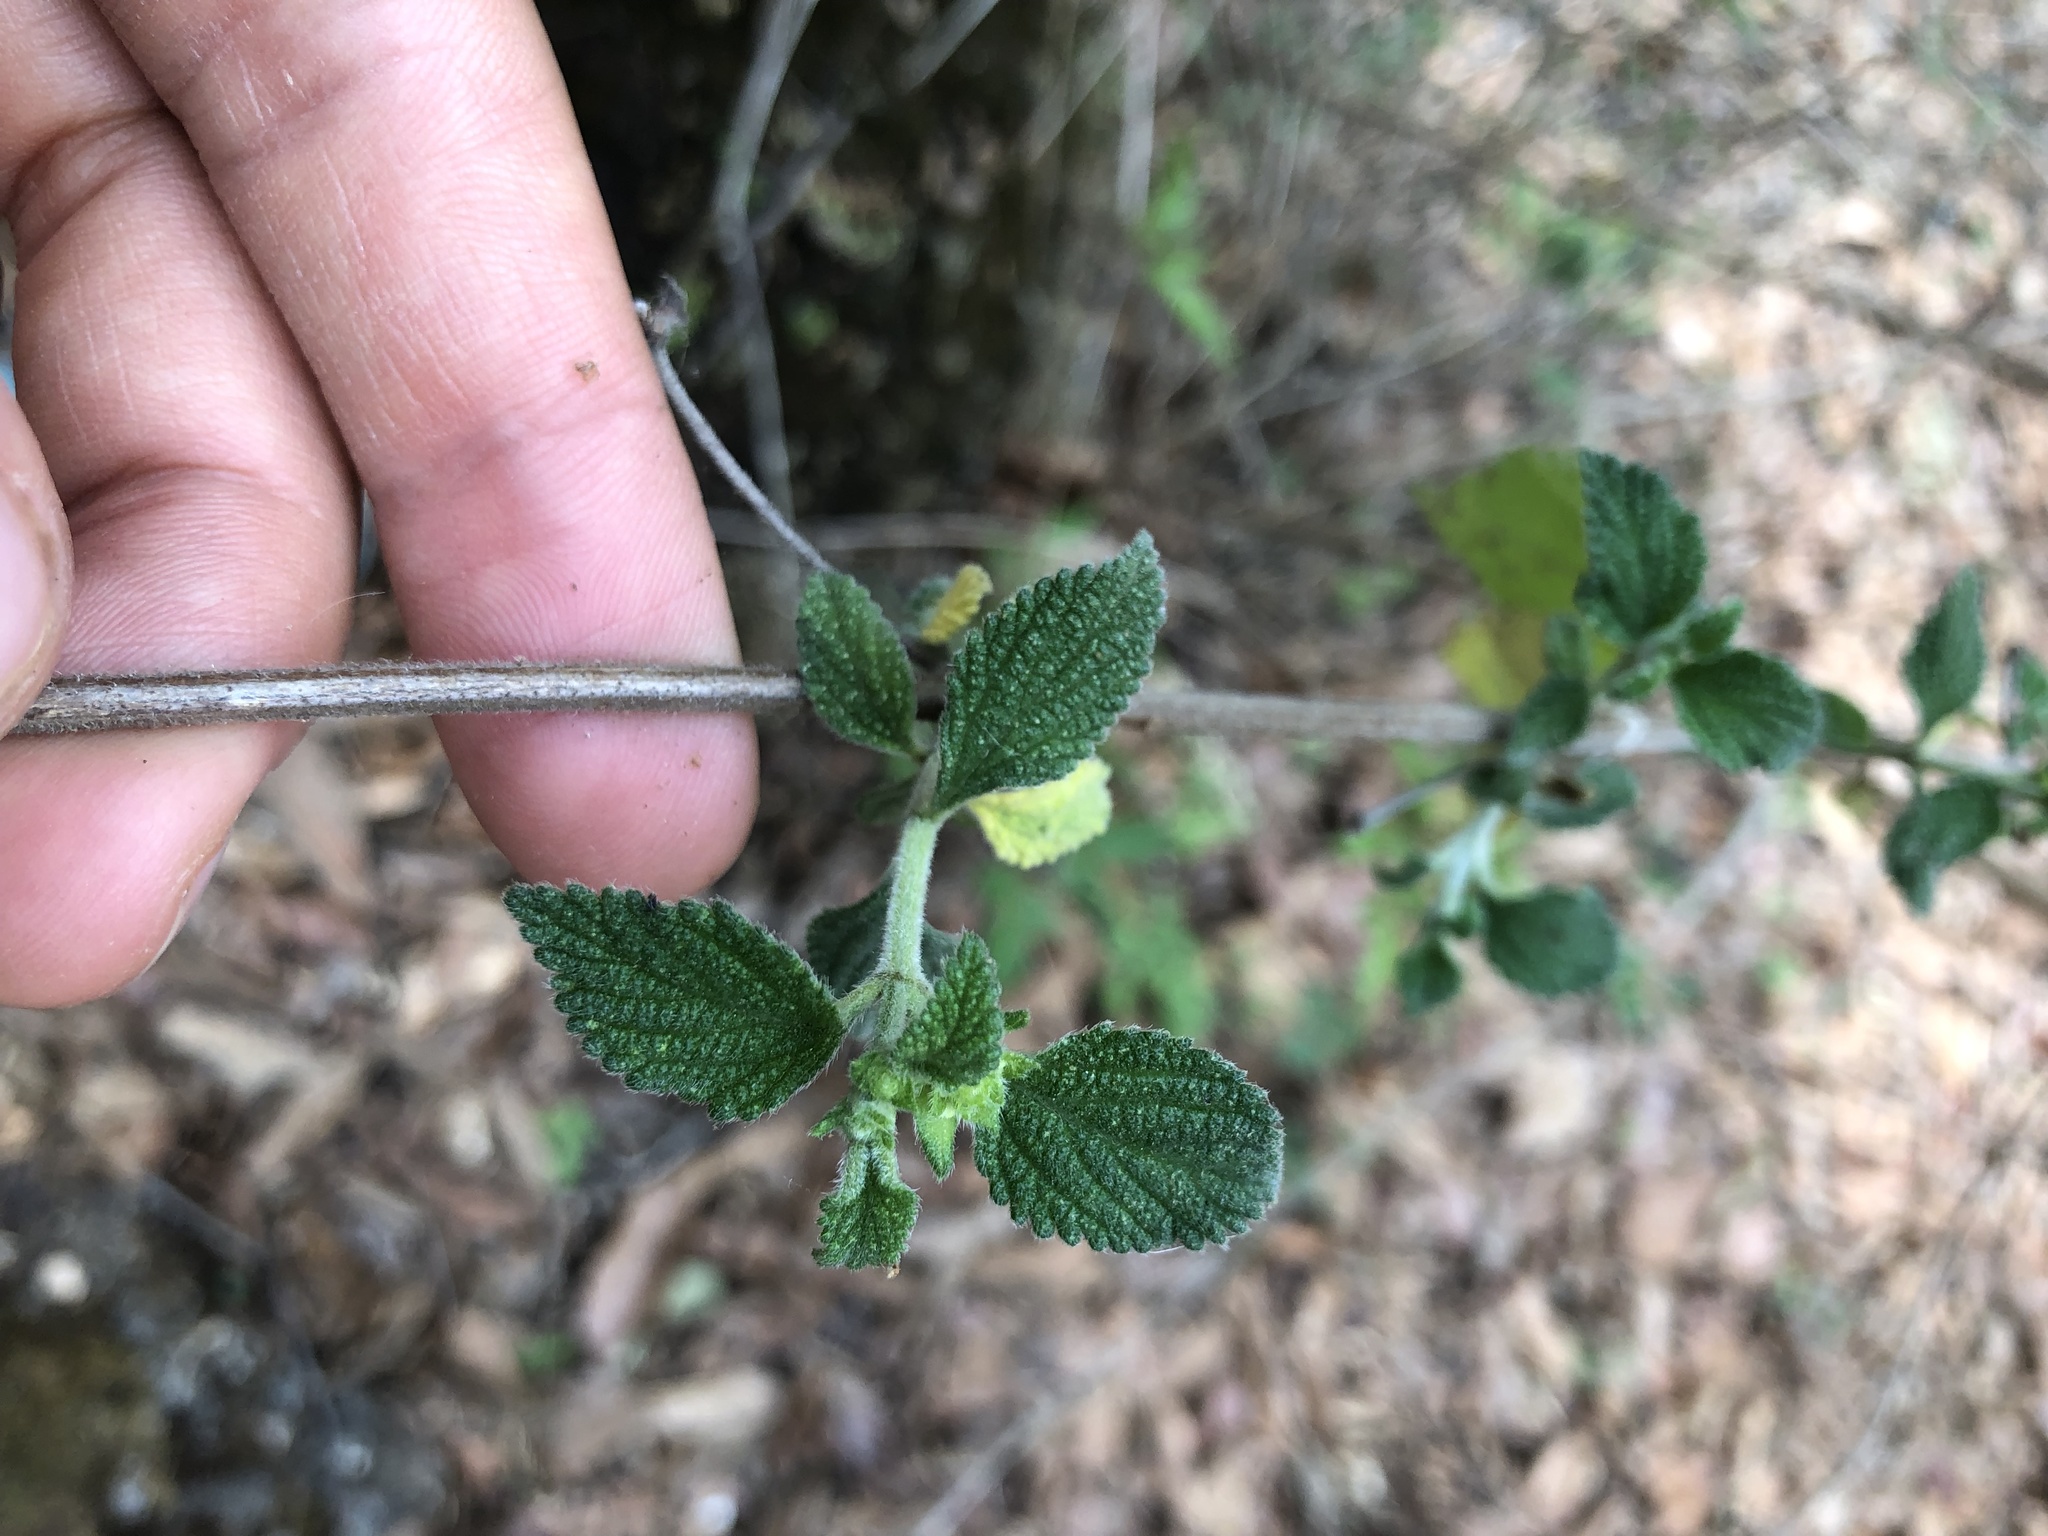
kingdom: Plantae
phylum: Tracheophyta
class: Magnoliopsida
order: Lamiales
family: Verbenaceae
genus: Lantana
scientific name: Lantana velutina
